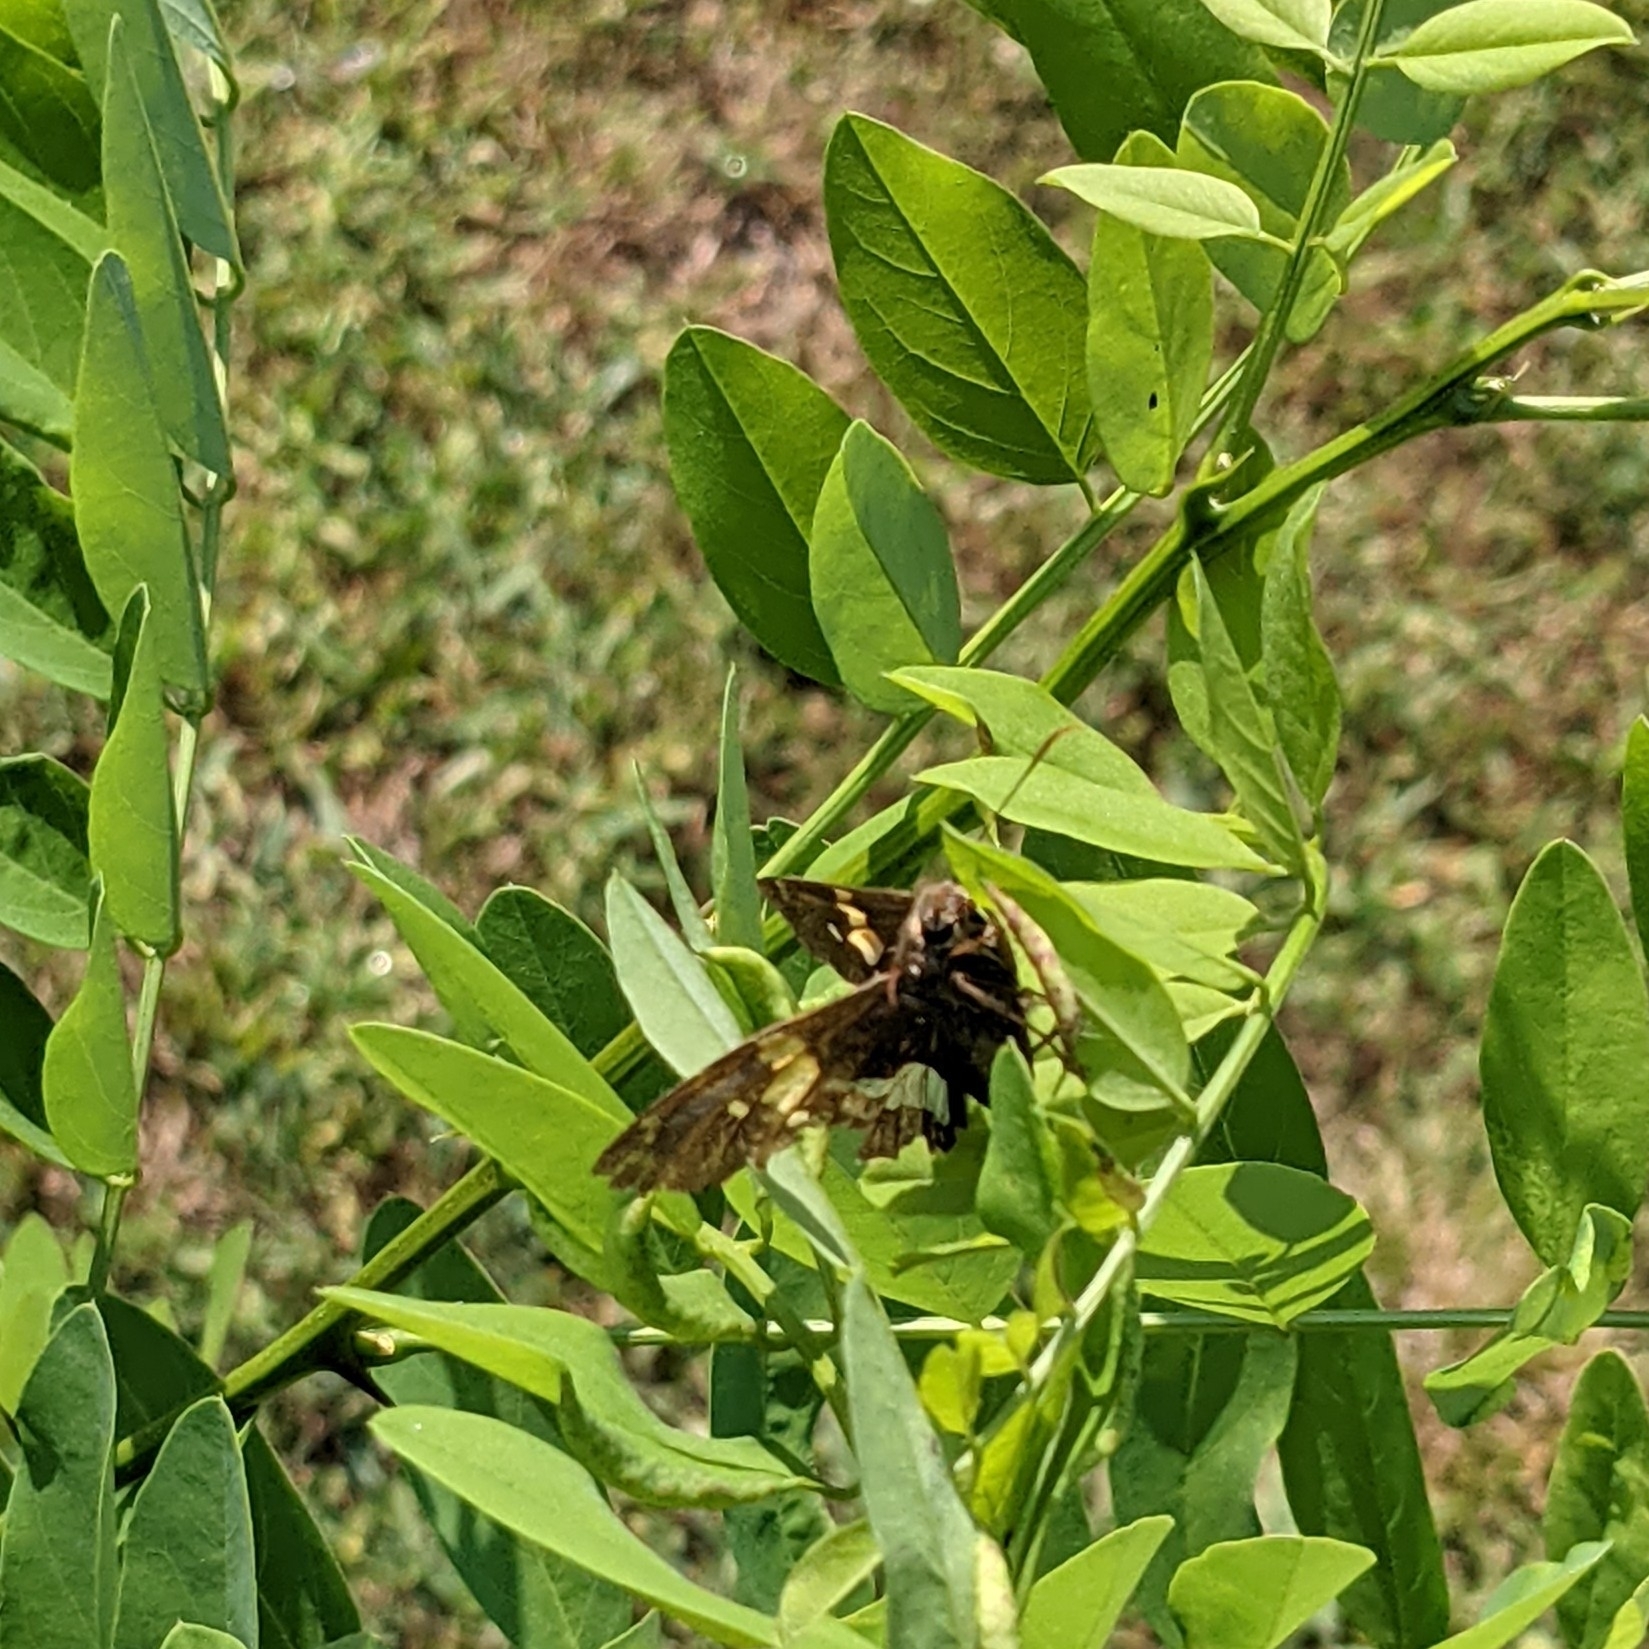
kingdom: Animalia
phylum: Arthropoda
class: Insecta
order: Lepidoptera
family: Hesperiidae
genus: Epargyreus
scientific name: Epargyreus clarus
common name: Silver-spotted skipper
